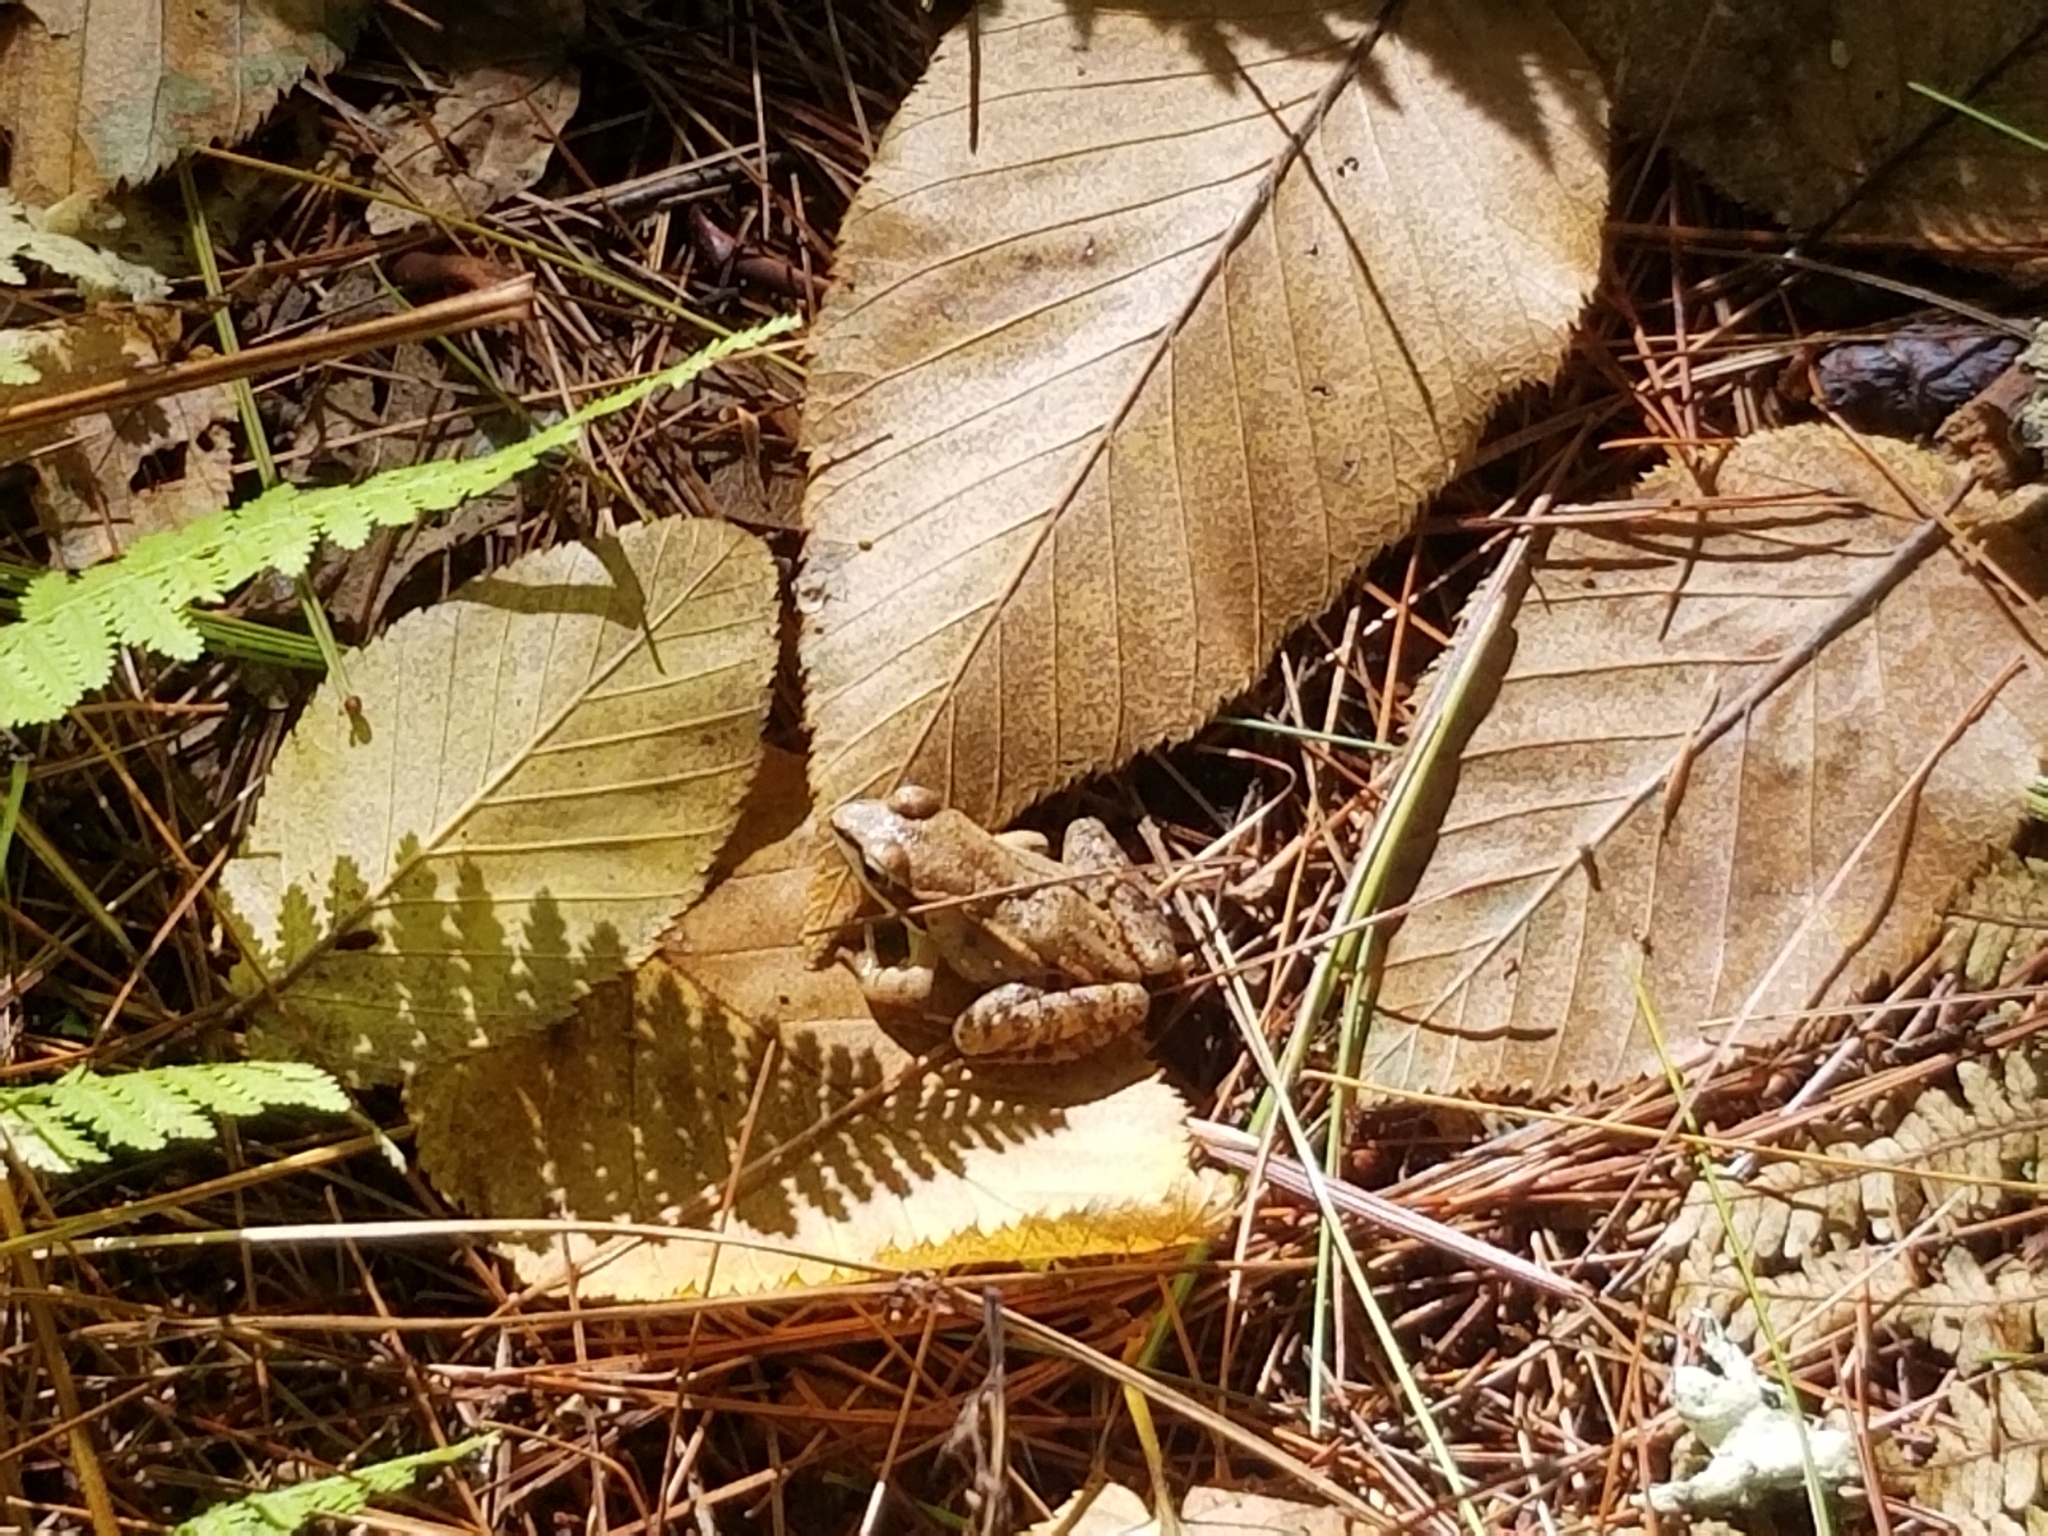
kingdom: Animalia
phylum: Chordata
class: Amphibia
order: Anura
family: Ranidae
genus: Lithobates
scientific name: Lithobates sylvaticus
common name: Wood frog
